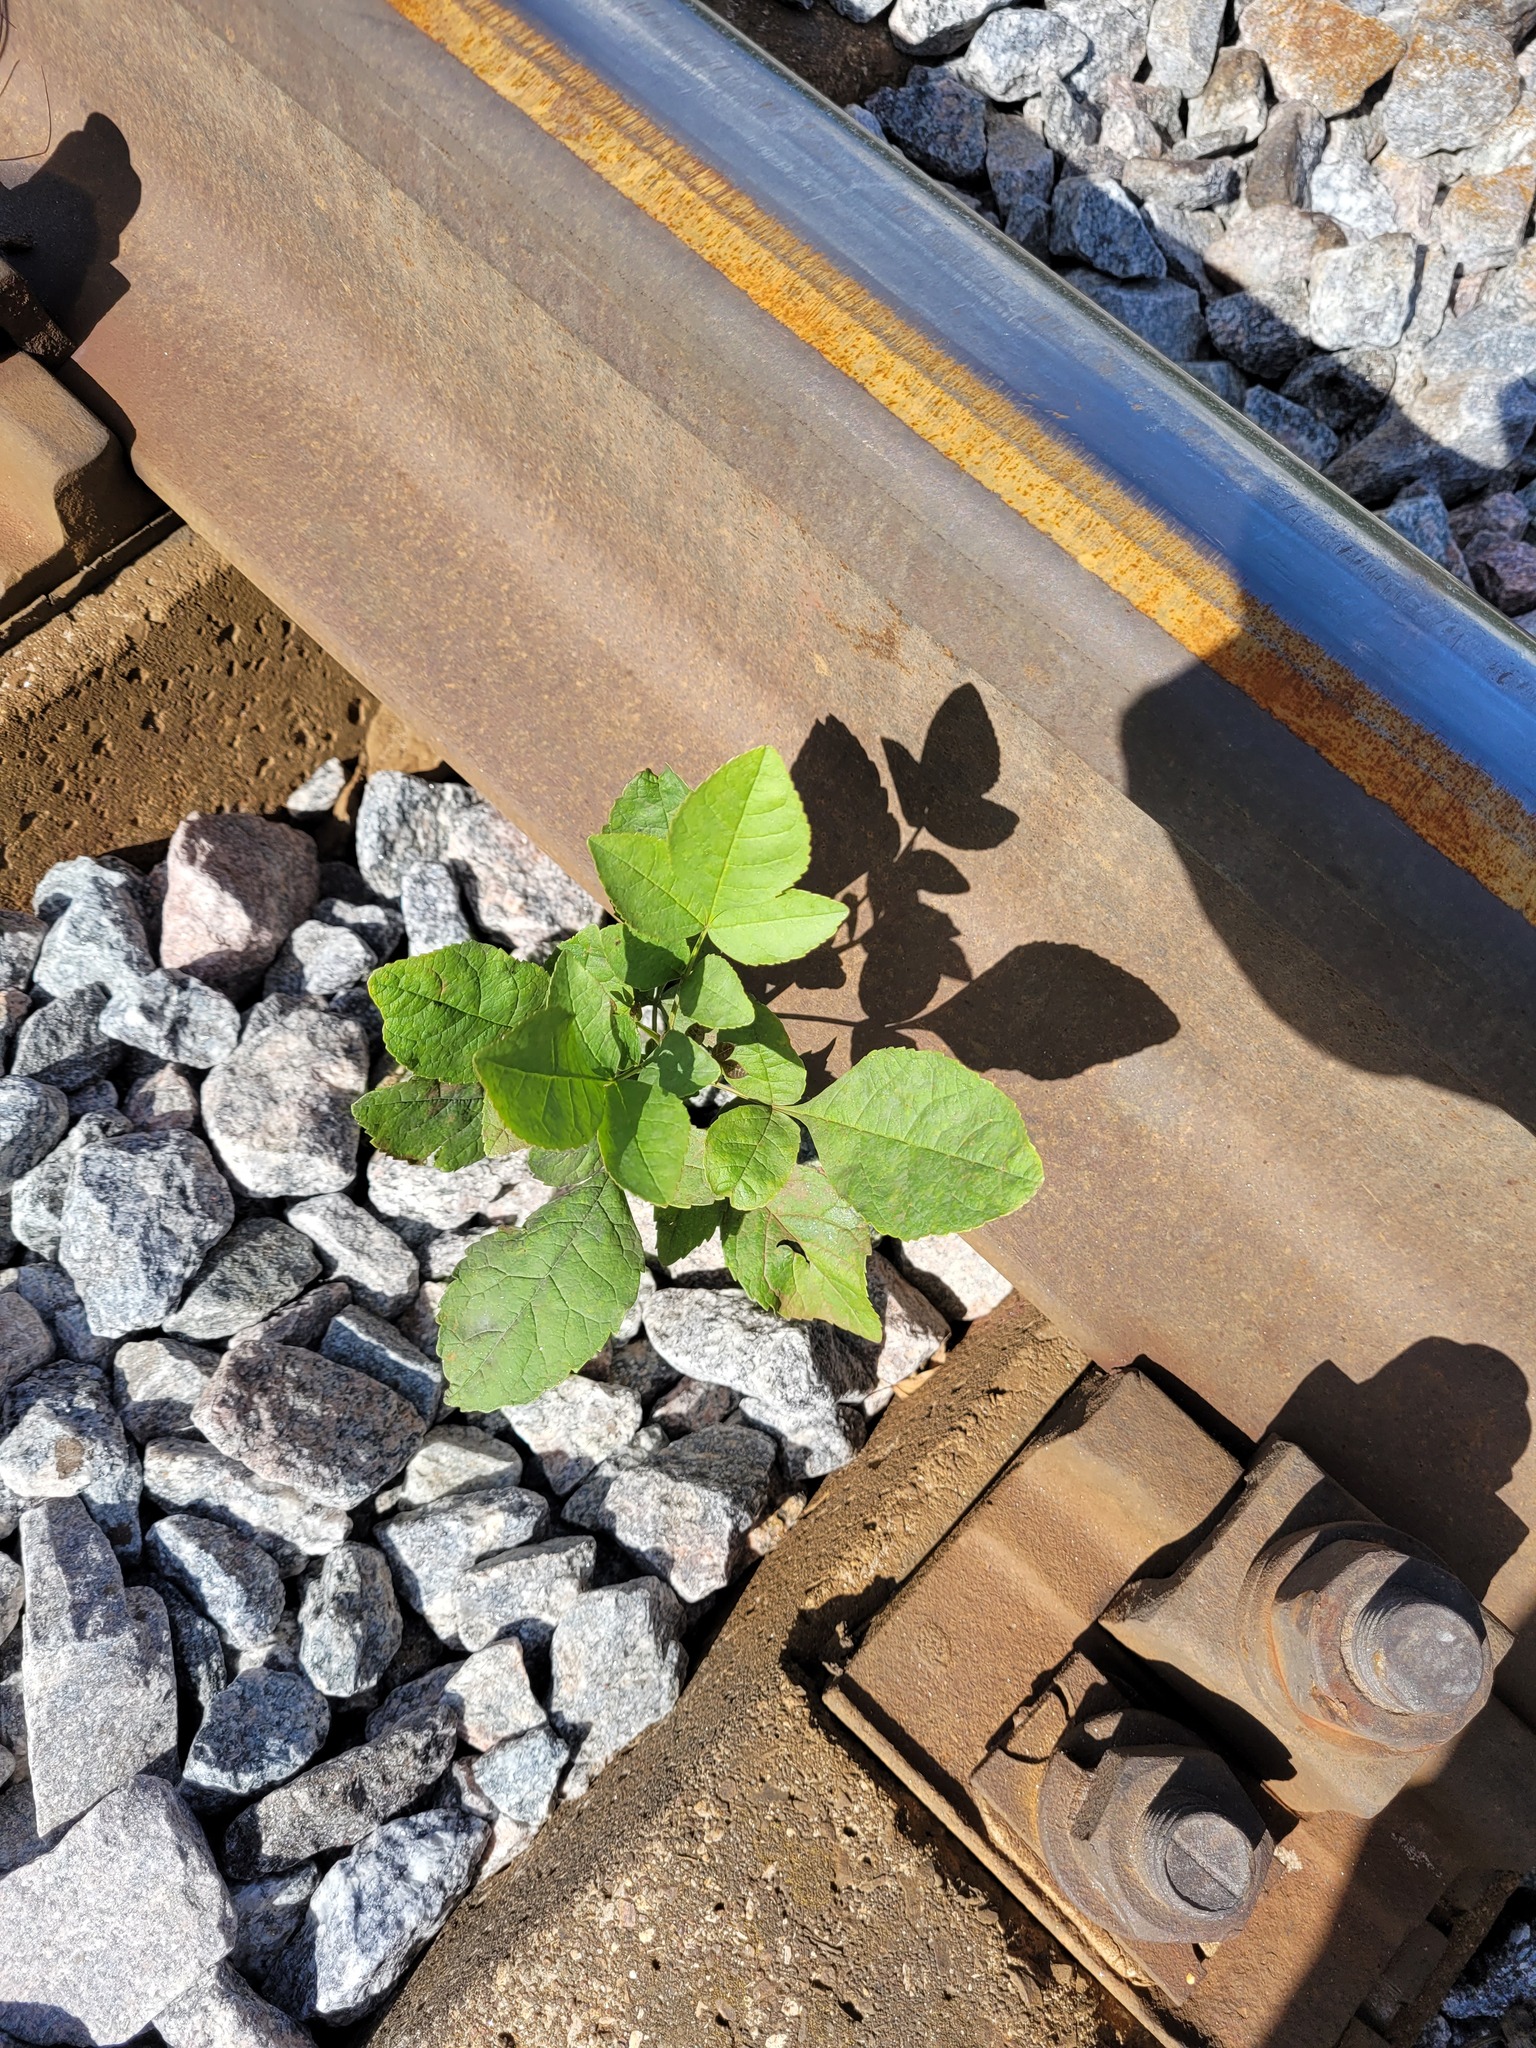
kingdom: Plantae
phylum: Tracheophyta
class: Magnoliopsida
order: Lamiales
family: Oleaceae
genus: Fraxinus
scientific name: Fraxinus pennsylvanica
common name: Green ash
